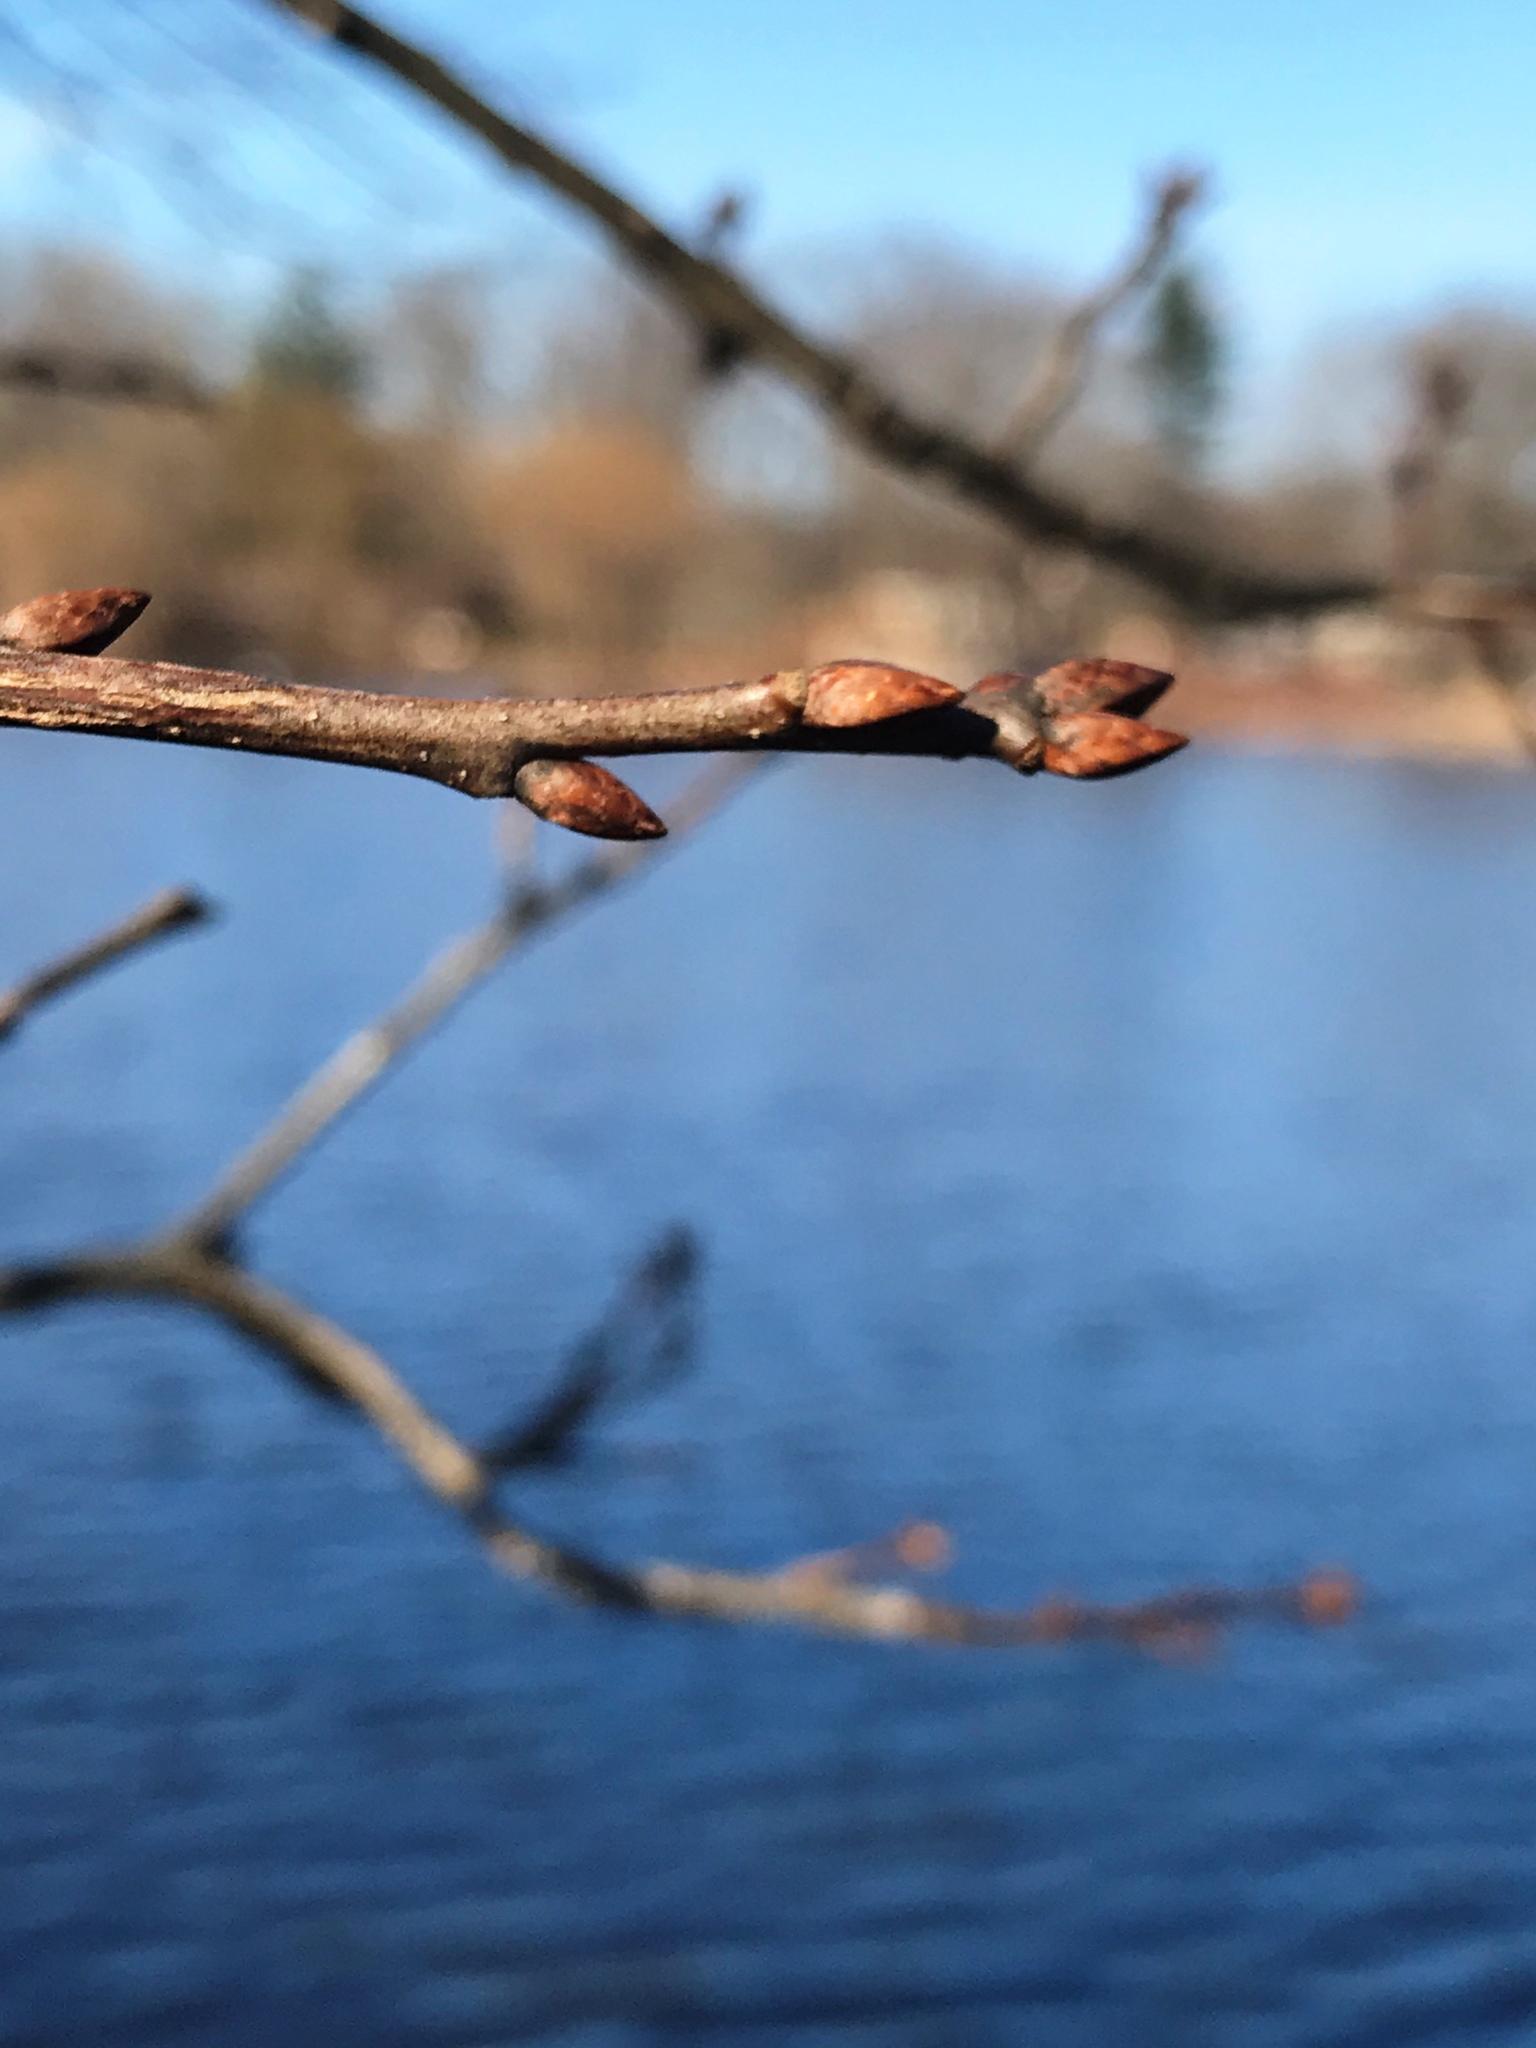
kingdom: Plantae
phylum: Tracheophyta
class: Magnoliopsida
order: Fagales
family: Fagaceae
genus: Quercus
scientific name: Quercus palustris
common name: Pin oak
